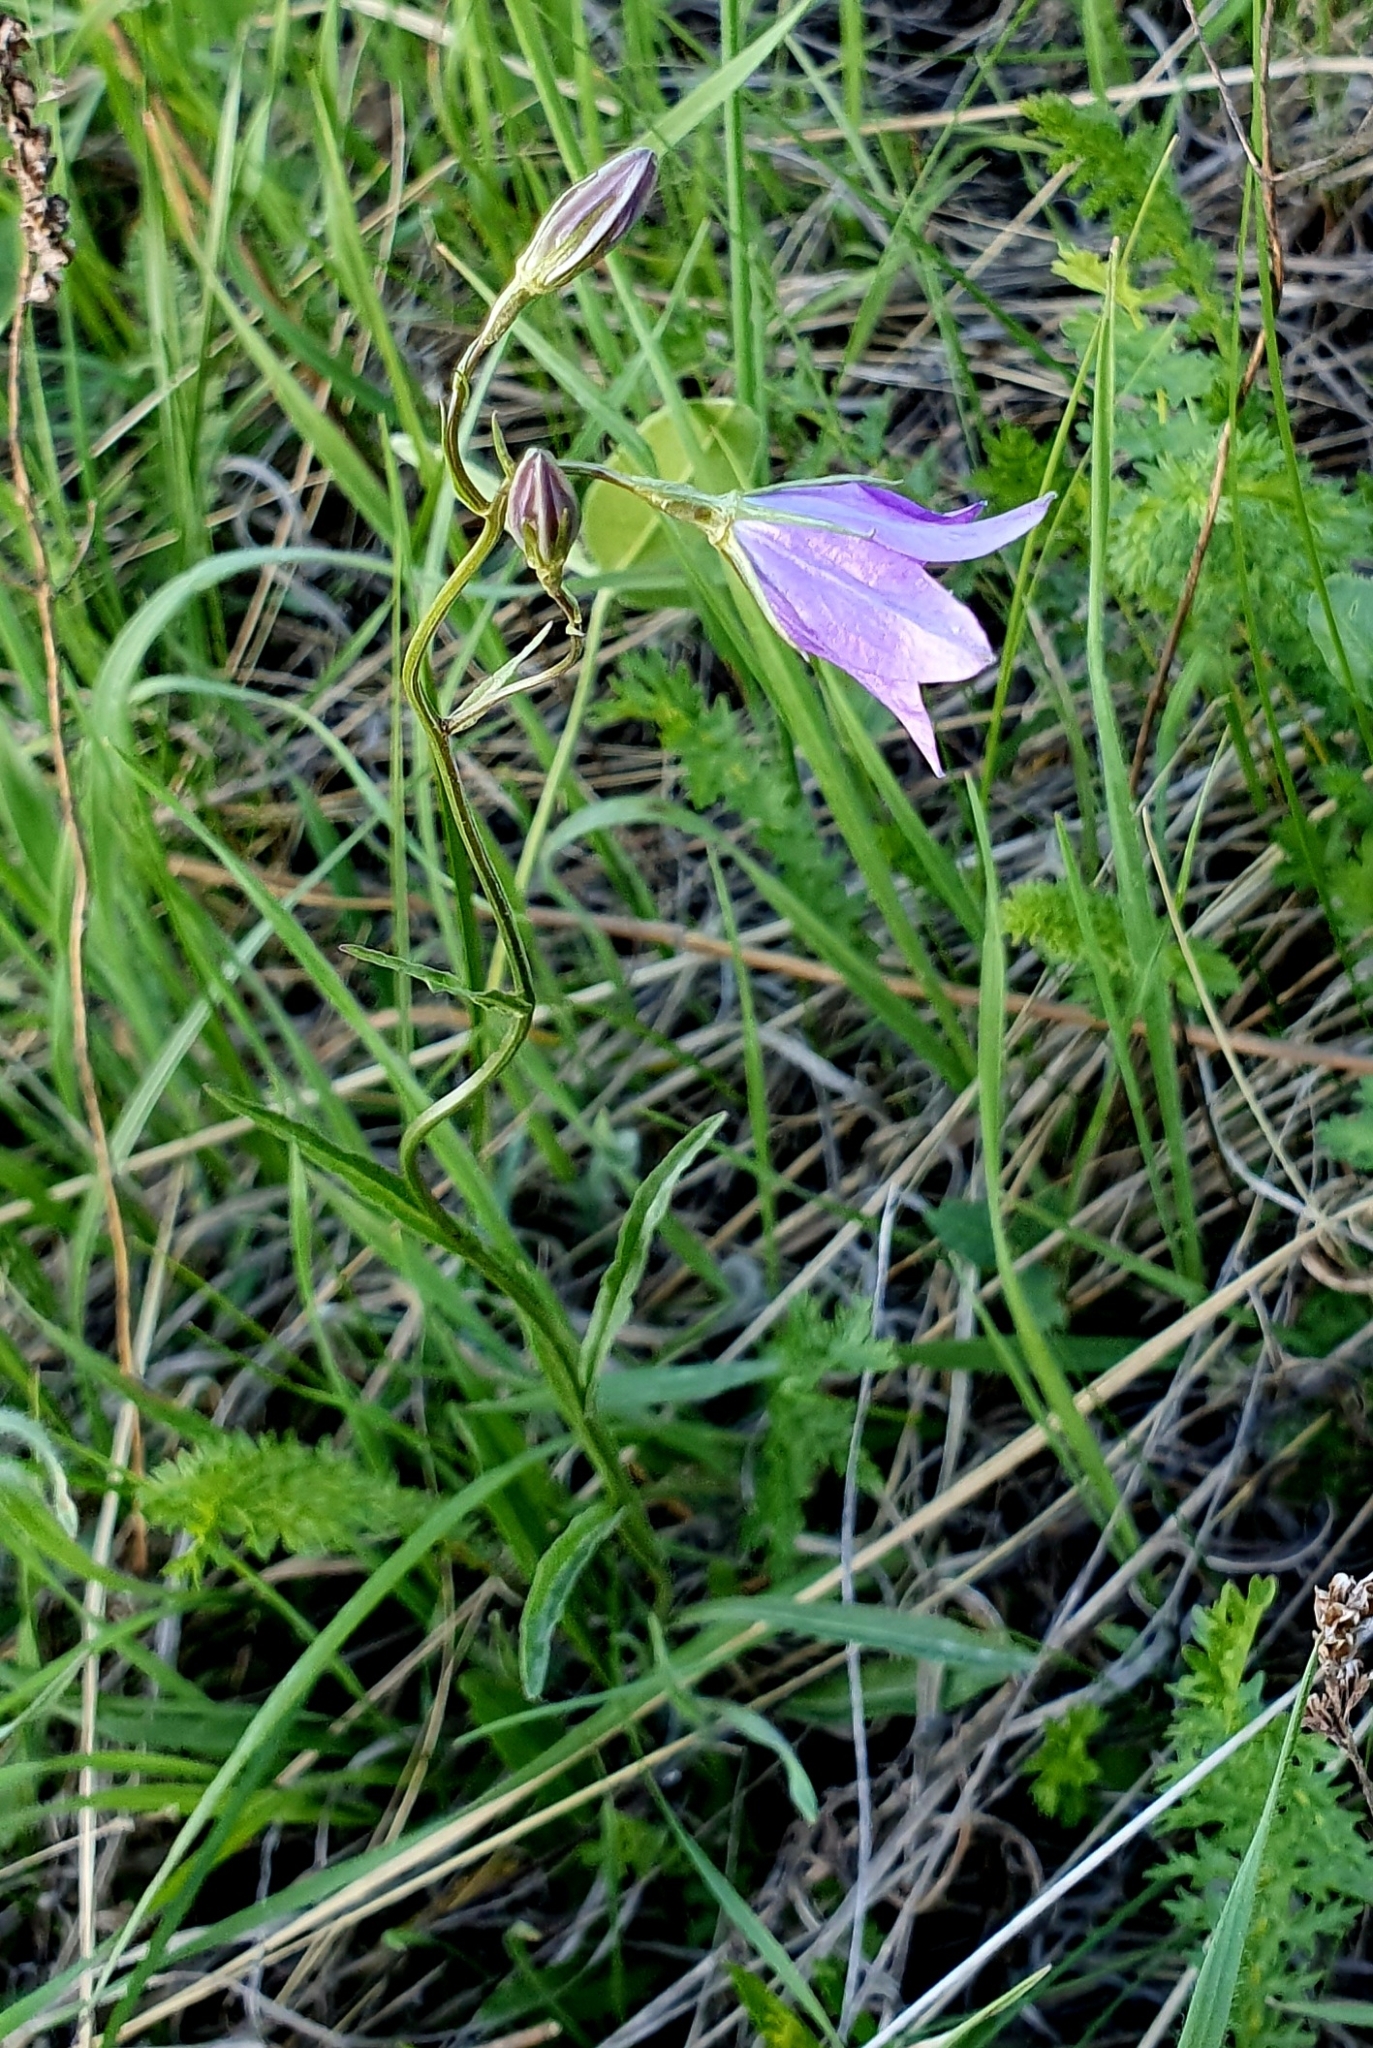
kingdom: Plantae
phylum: Tracheophyta
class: Magnoliopsida
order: Asterales
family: Campanulaceae
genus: Campanula
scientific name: Campanula stevenii
